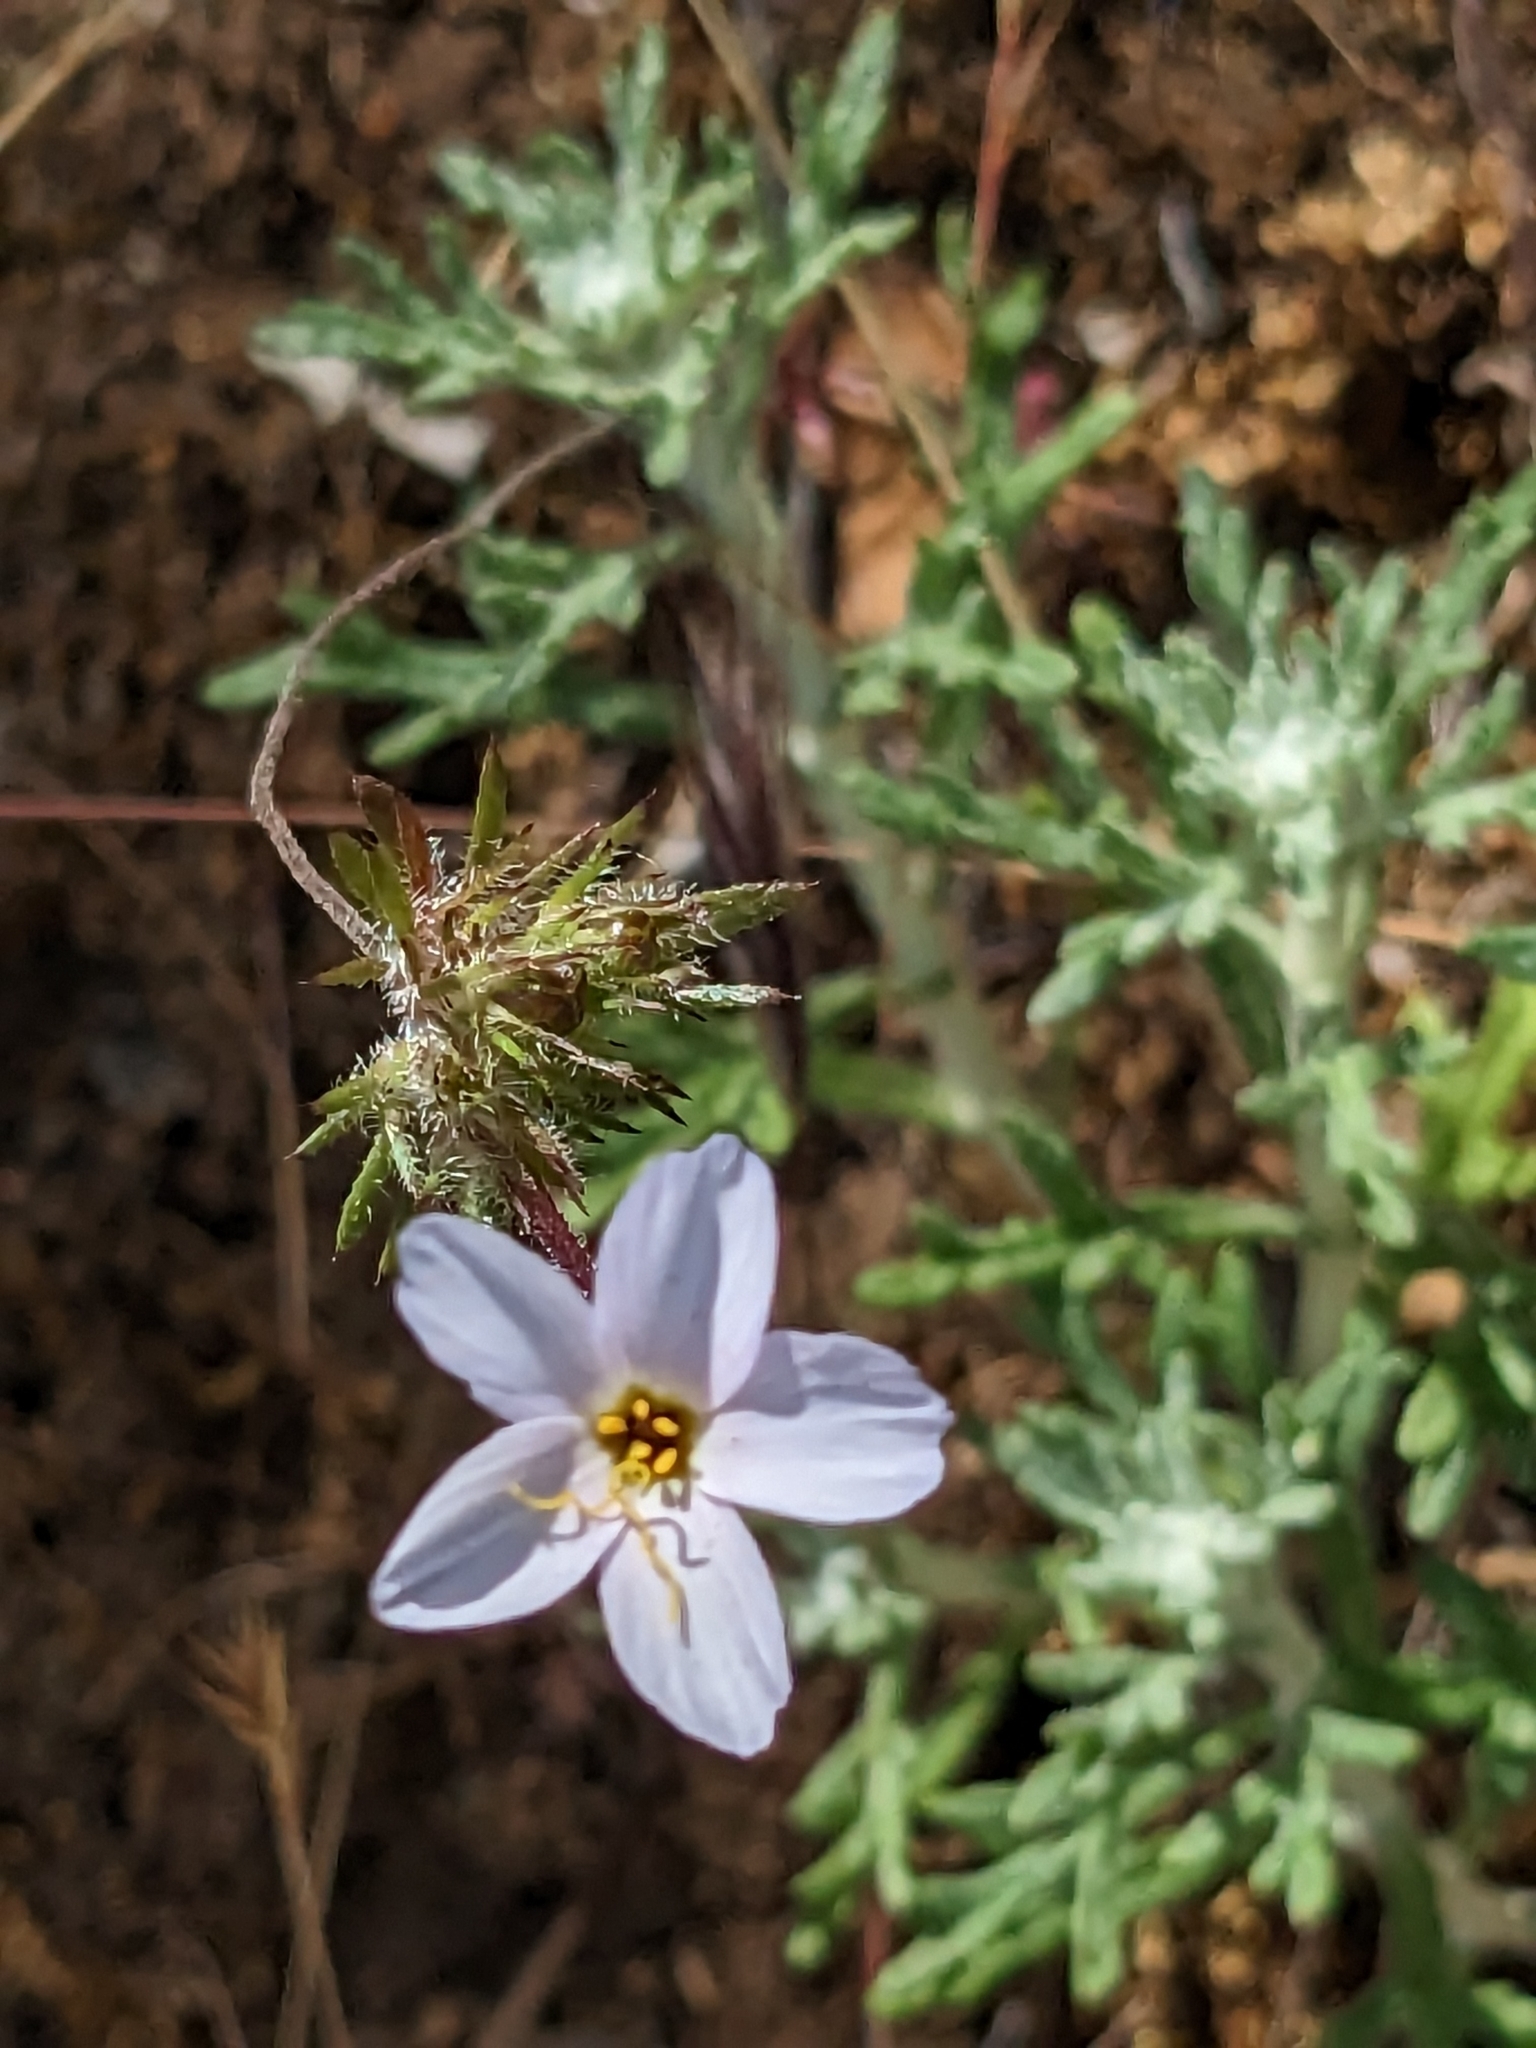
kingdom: Plantae
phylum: Tracheophyta
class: Magnoliopsida
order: Ericales
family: Polemoniaceae
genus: Leptosiphon
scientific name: Leptosiphon androsaceus
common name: False babystars
